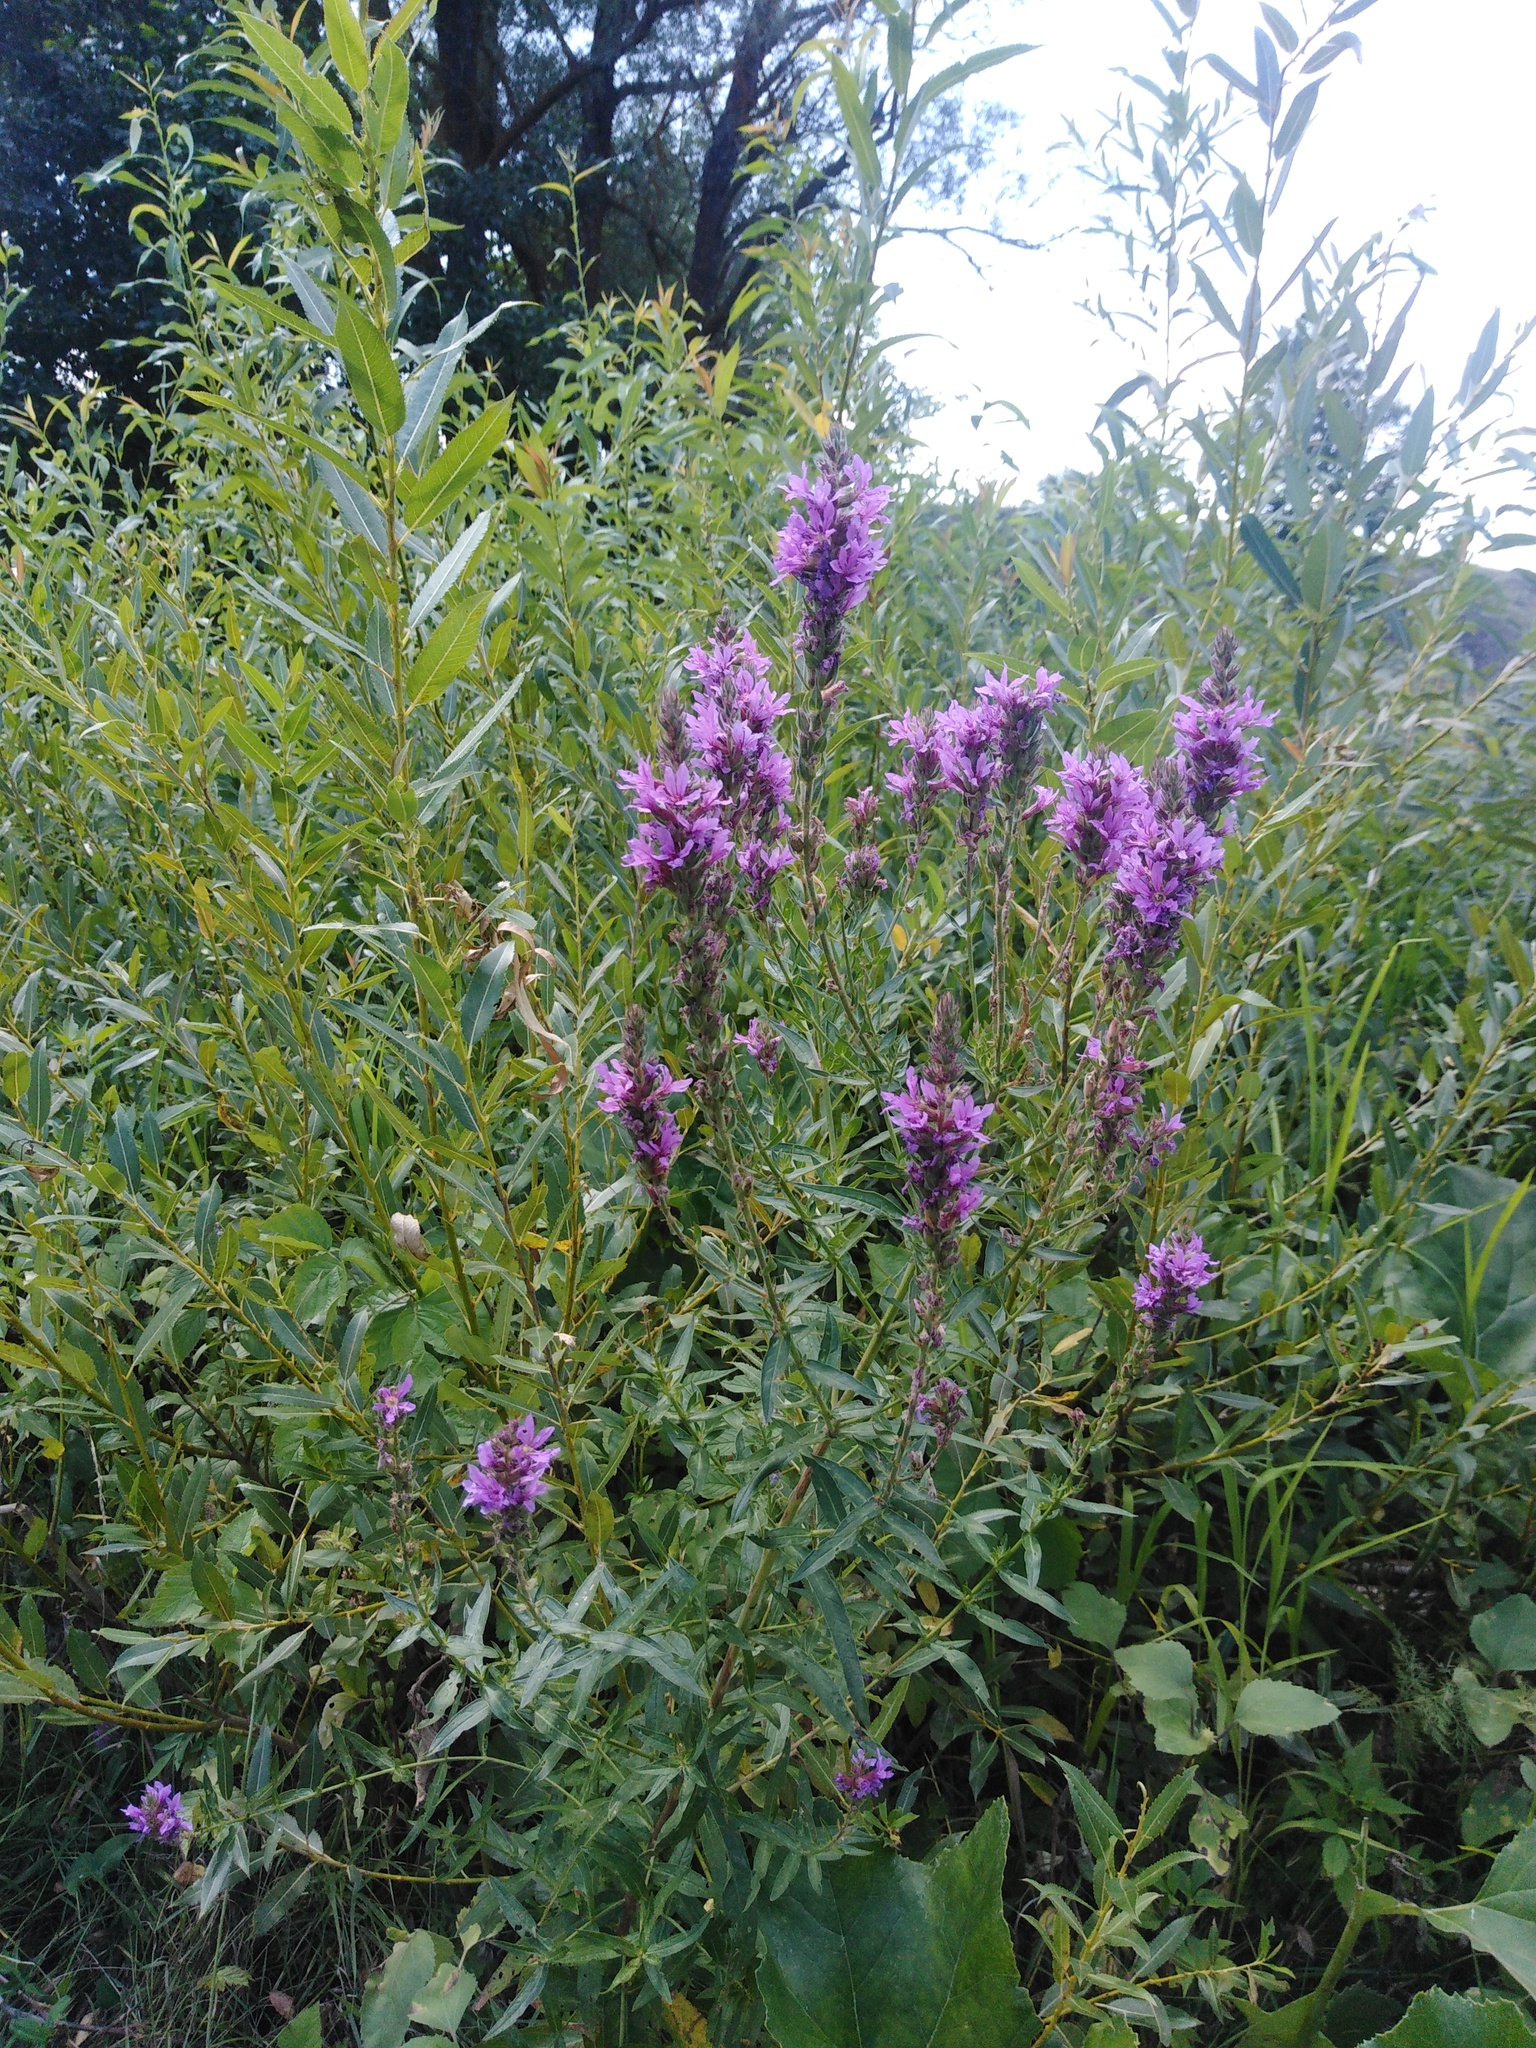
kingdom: Plantae
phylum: Tracheophyta
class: Magnoliopsida
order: Myrtales
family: Lythraceae
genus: Lythrum
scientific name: Lythrum salicaria
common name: Purple loosestrife
